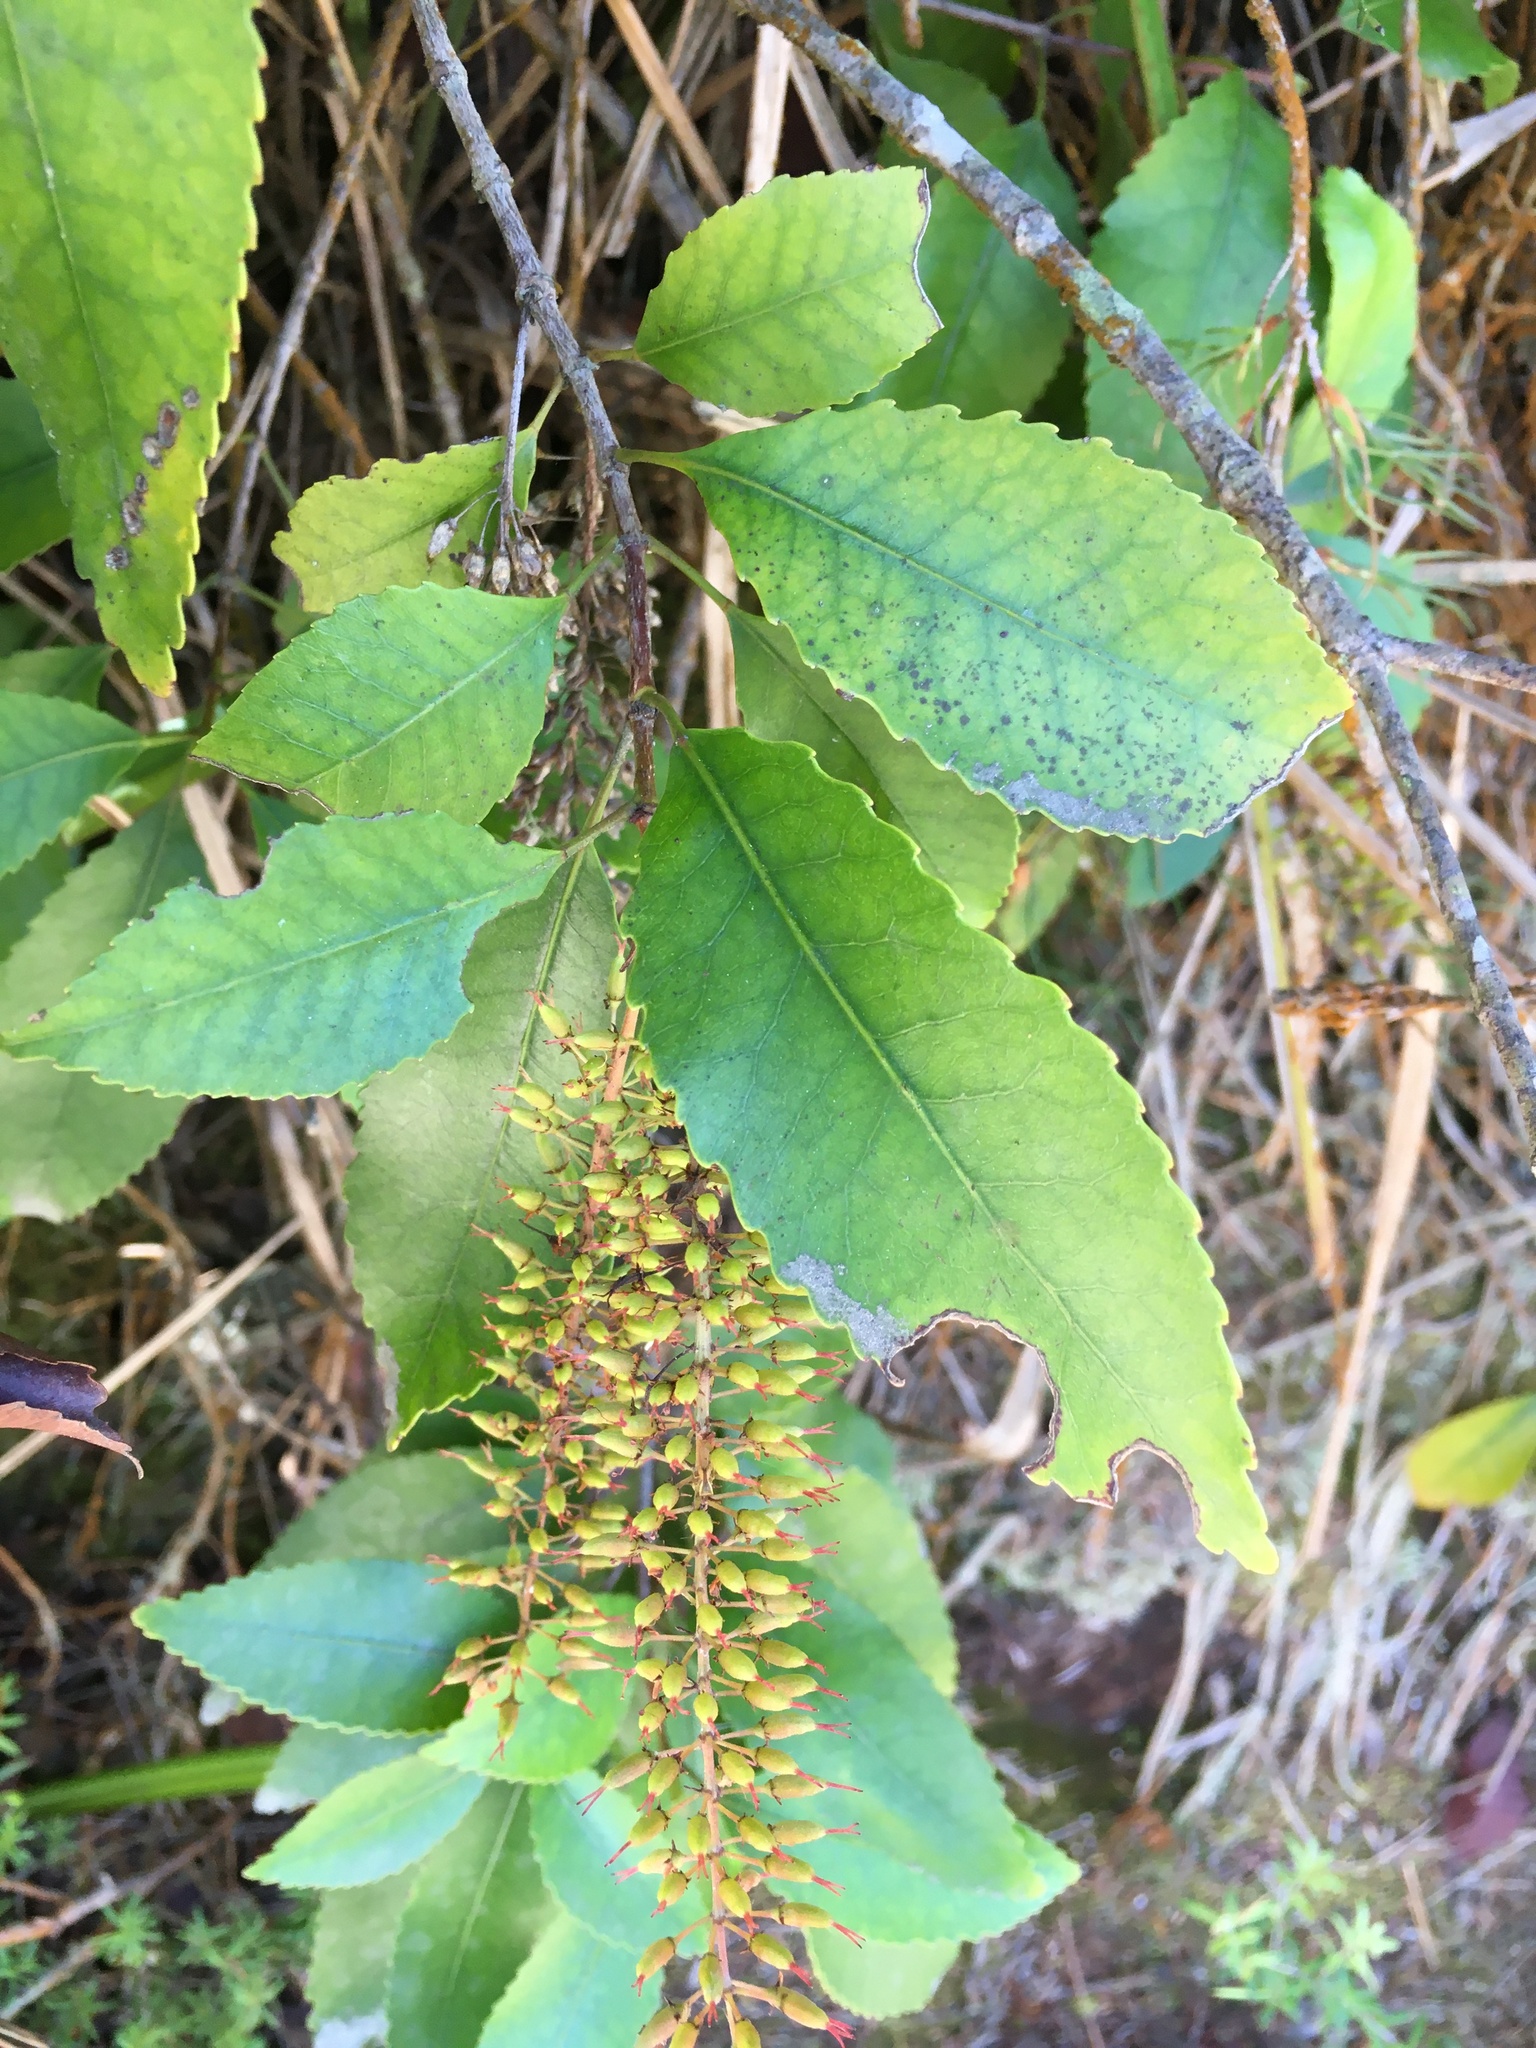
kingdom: Plantae
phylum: Tracheophyta
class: Magnoliopsida
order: Oxalidales
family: Cunoniaceae
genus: Pterophylla
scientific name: Pterophylla racemosa
